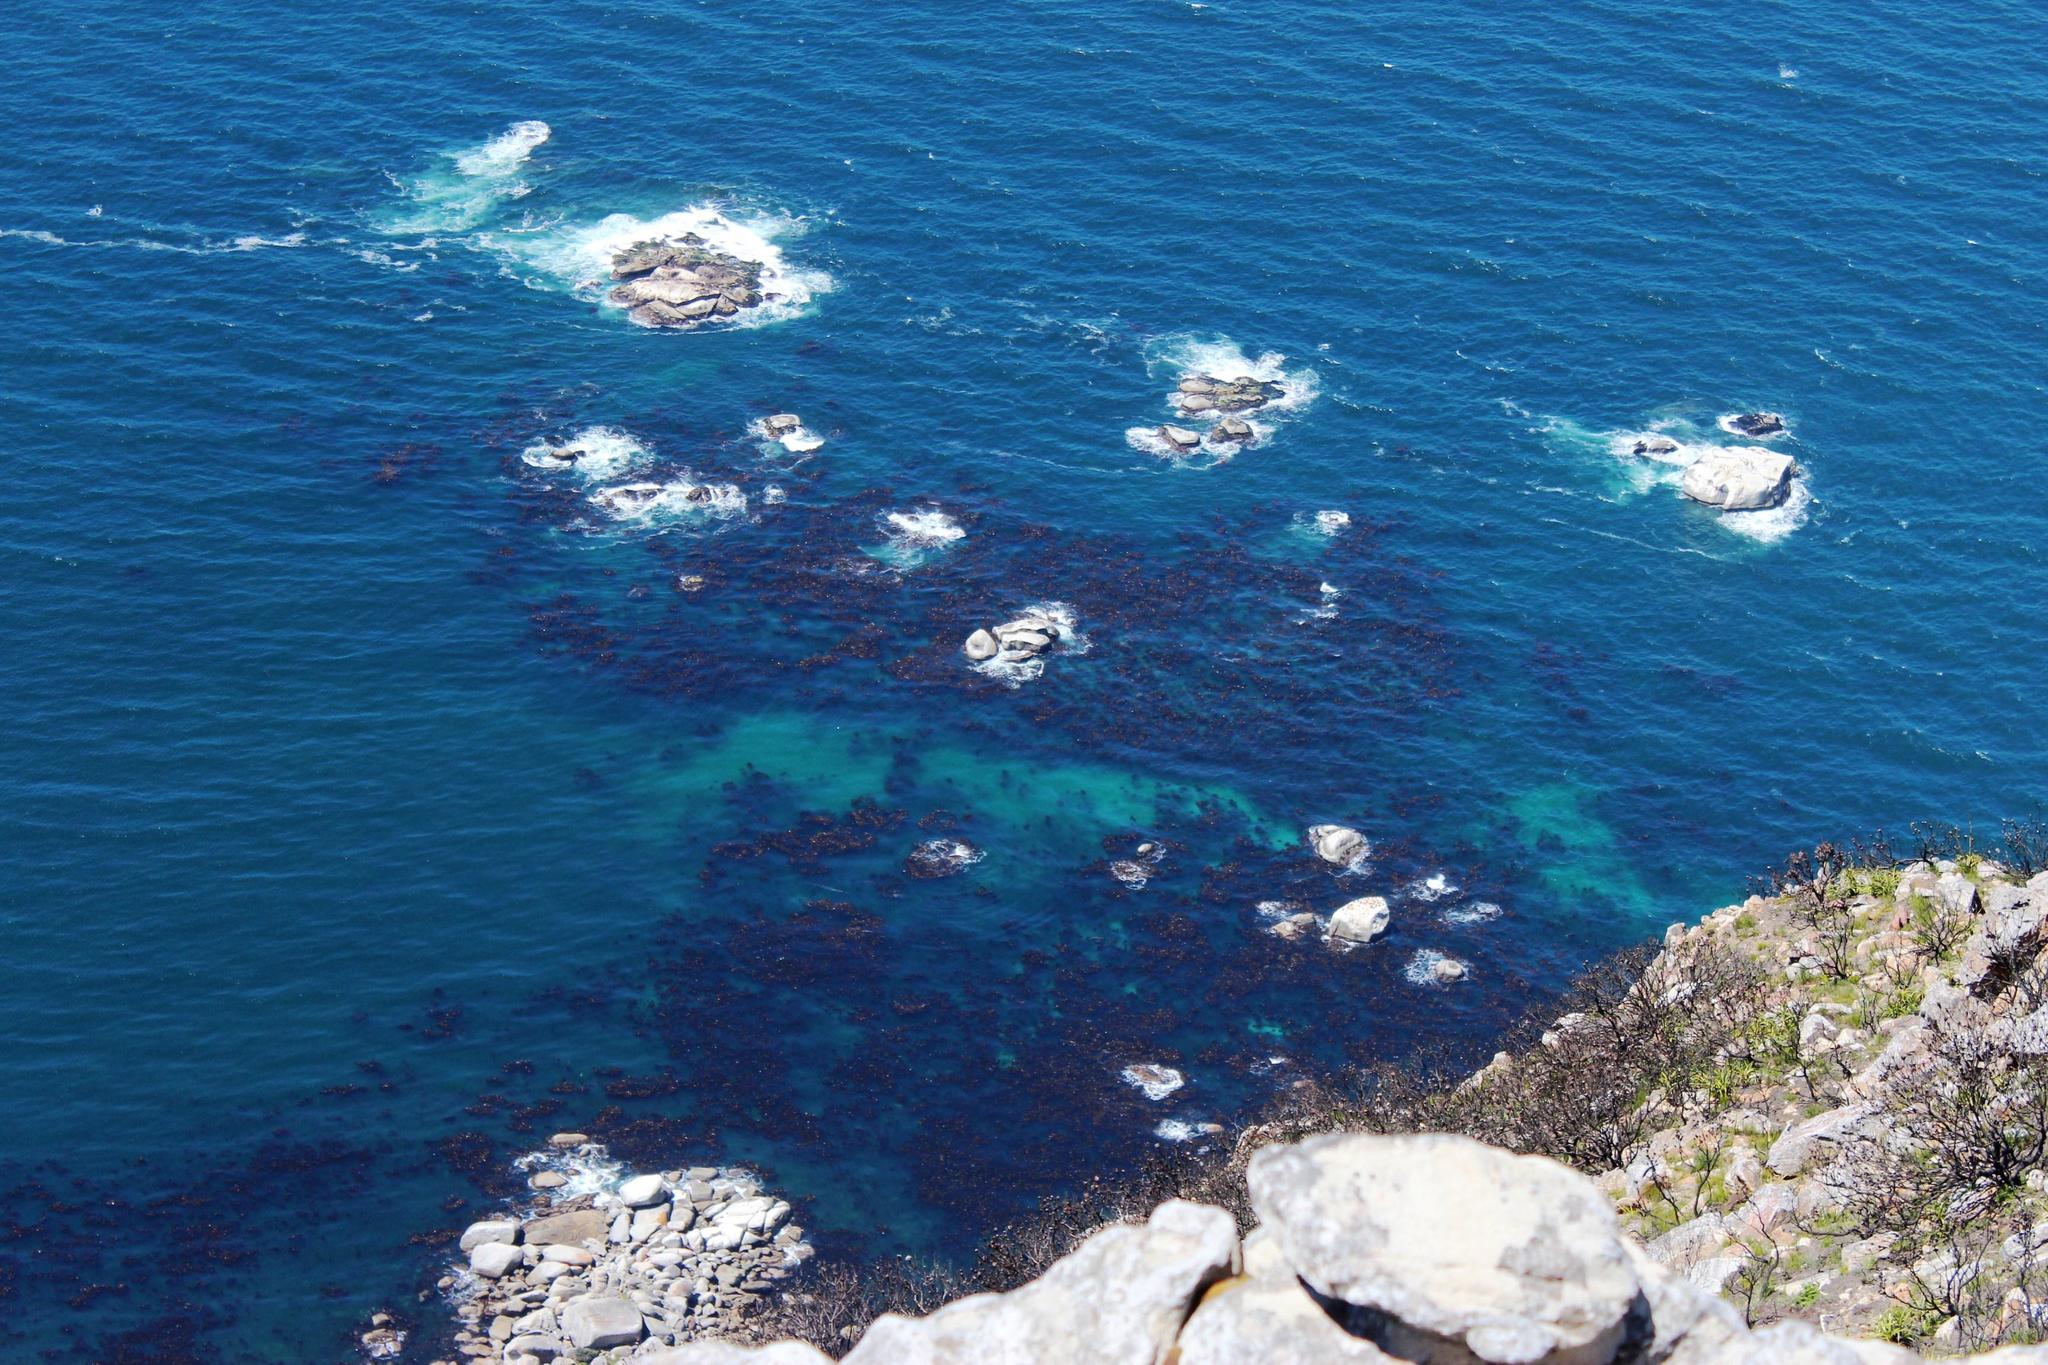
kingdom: Chromista
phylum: Ochrophyta
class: Phaeophyceae
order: Laminariales
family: Lessoniaceae
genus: Ecklonia
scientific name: Ecklonia
